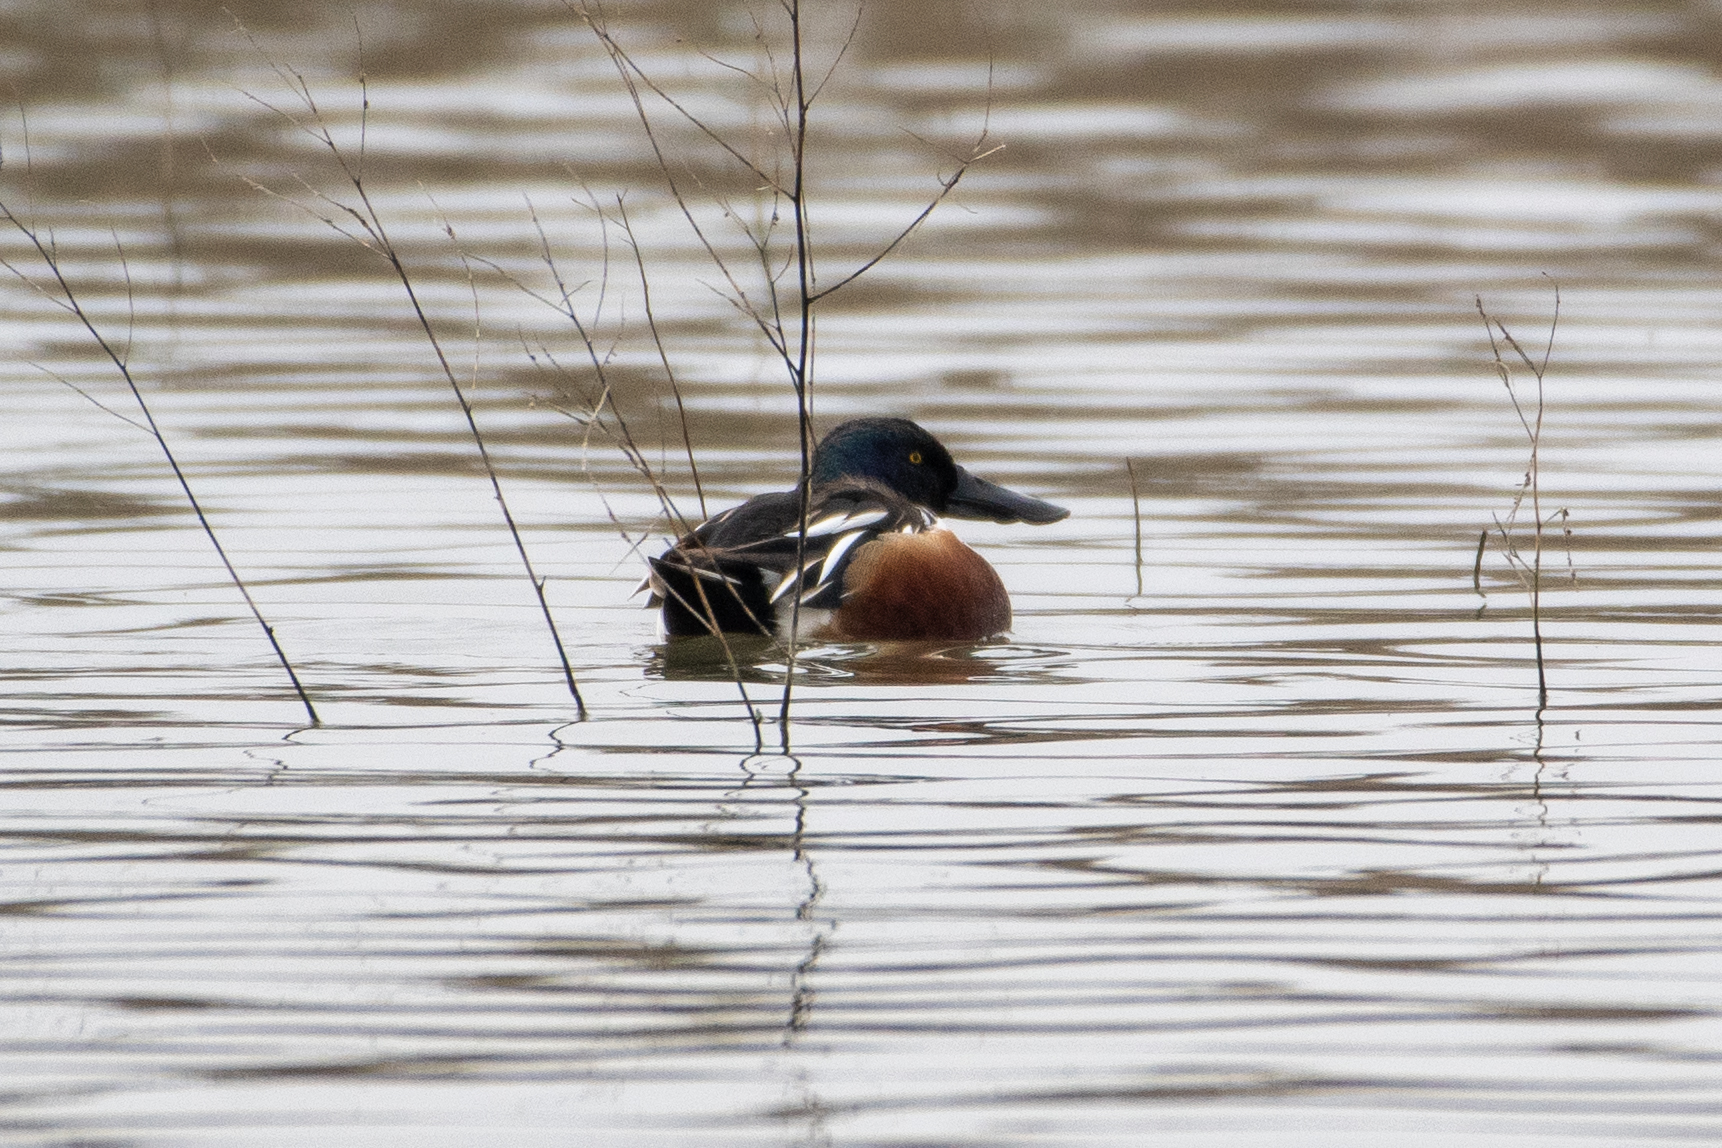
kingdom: Animalia
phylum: Chordata
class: Aves
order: Anseriformes
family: Anatidae
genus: Spatula
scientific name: Spatula clypeata
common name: Northern shoveler
